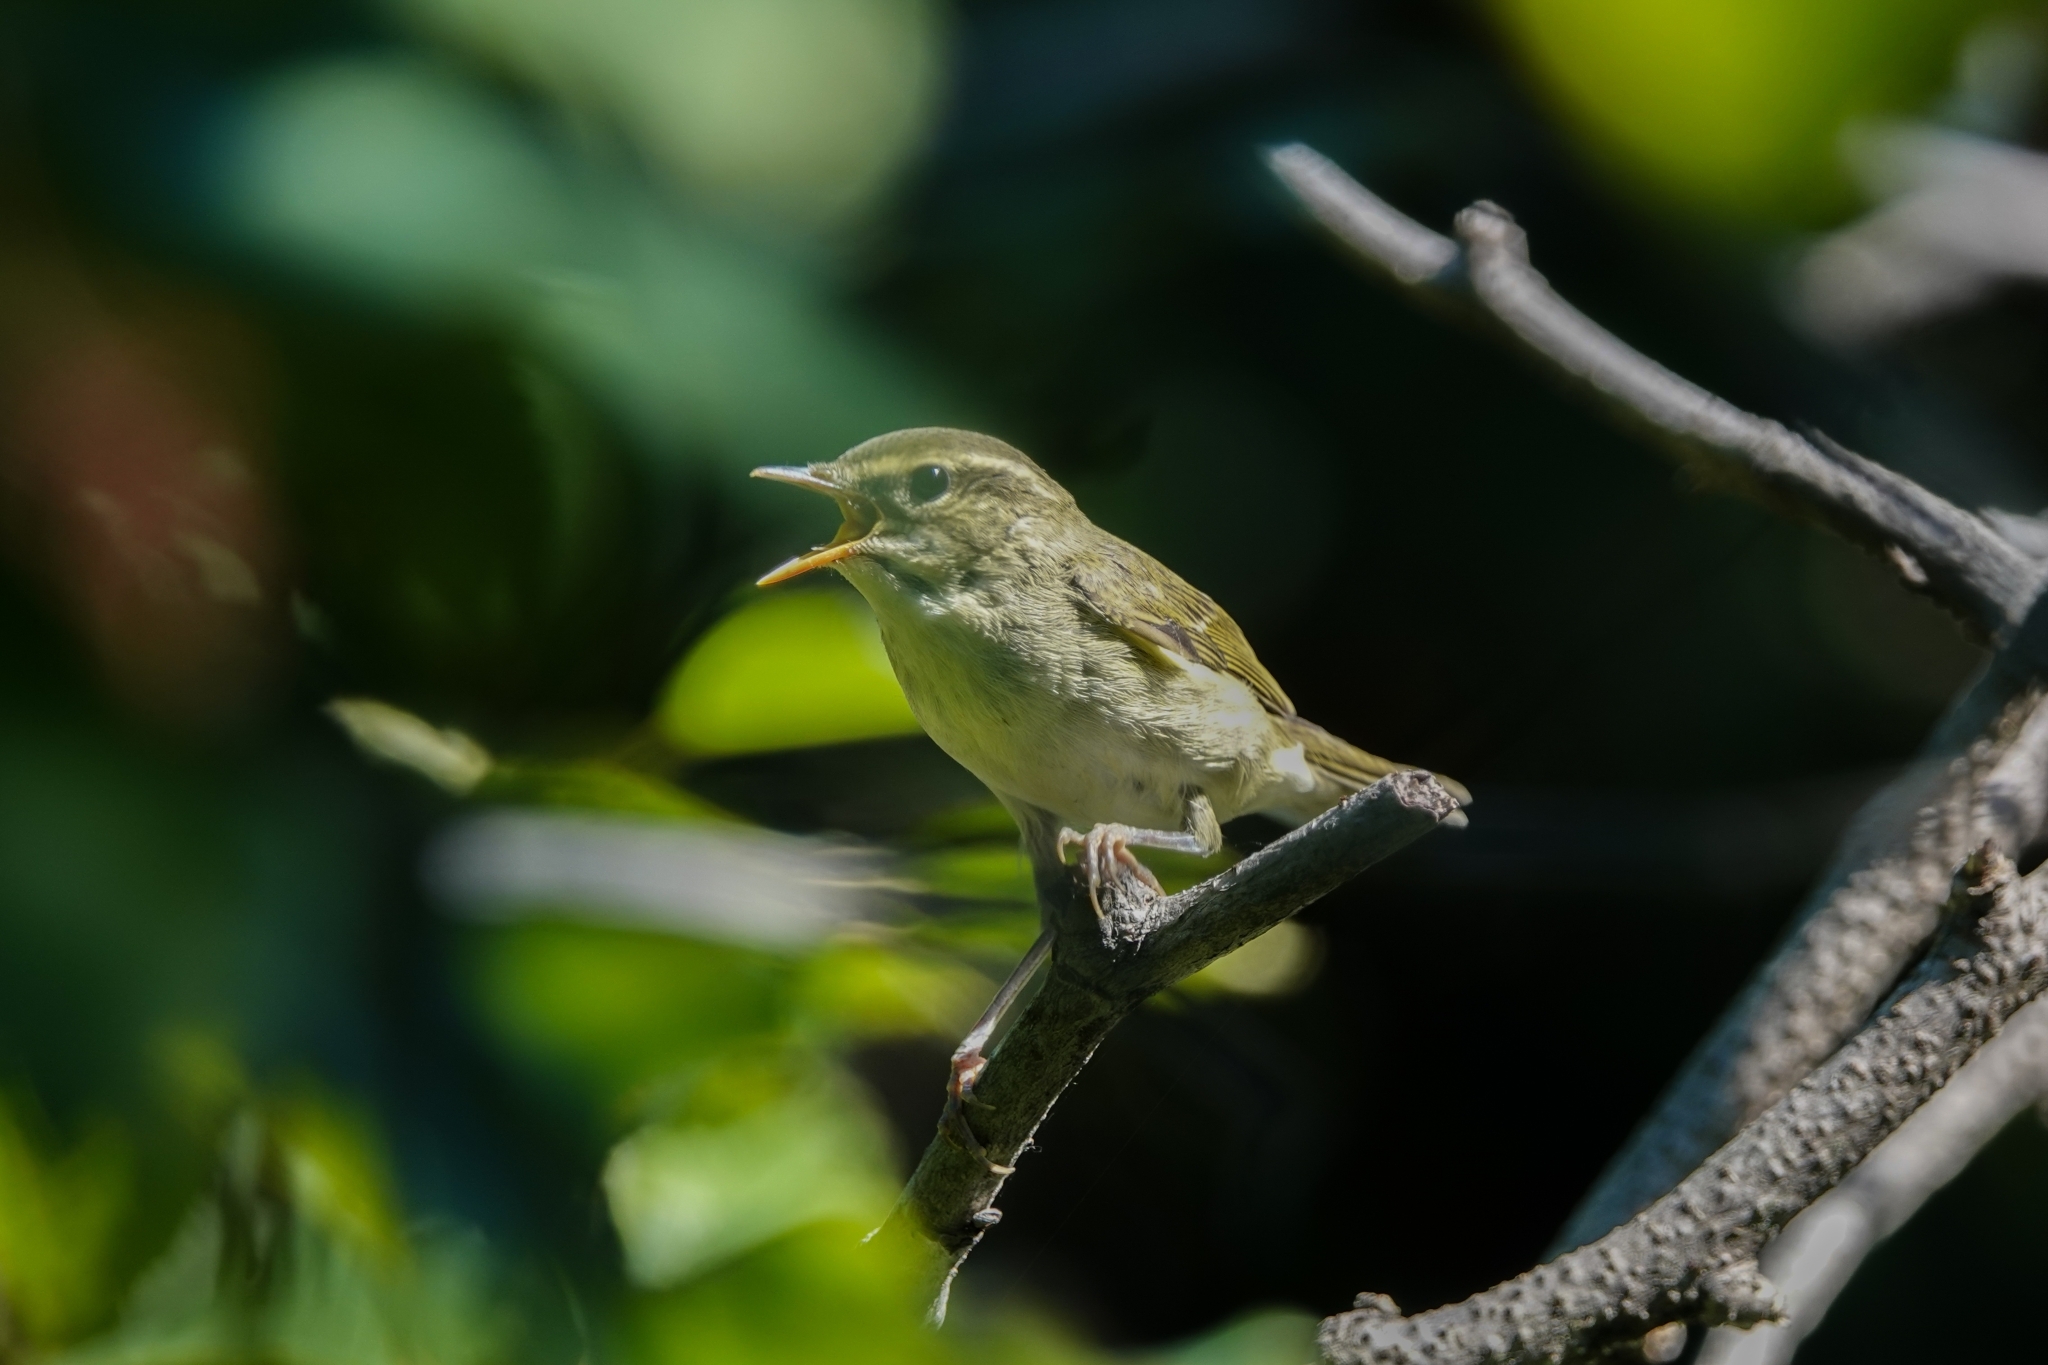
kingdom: Animalia
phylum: Chordata
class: Aves
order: Passeriformes
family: Phylloscopidae
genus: Phylloscopus
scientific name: Phylloscopus examinandus
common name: Kamchatka leaf warbler
